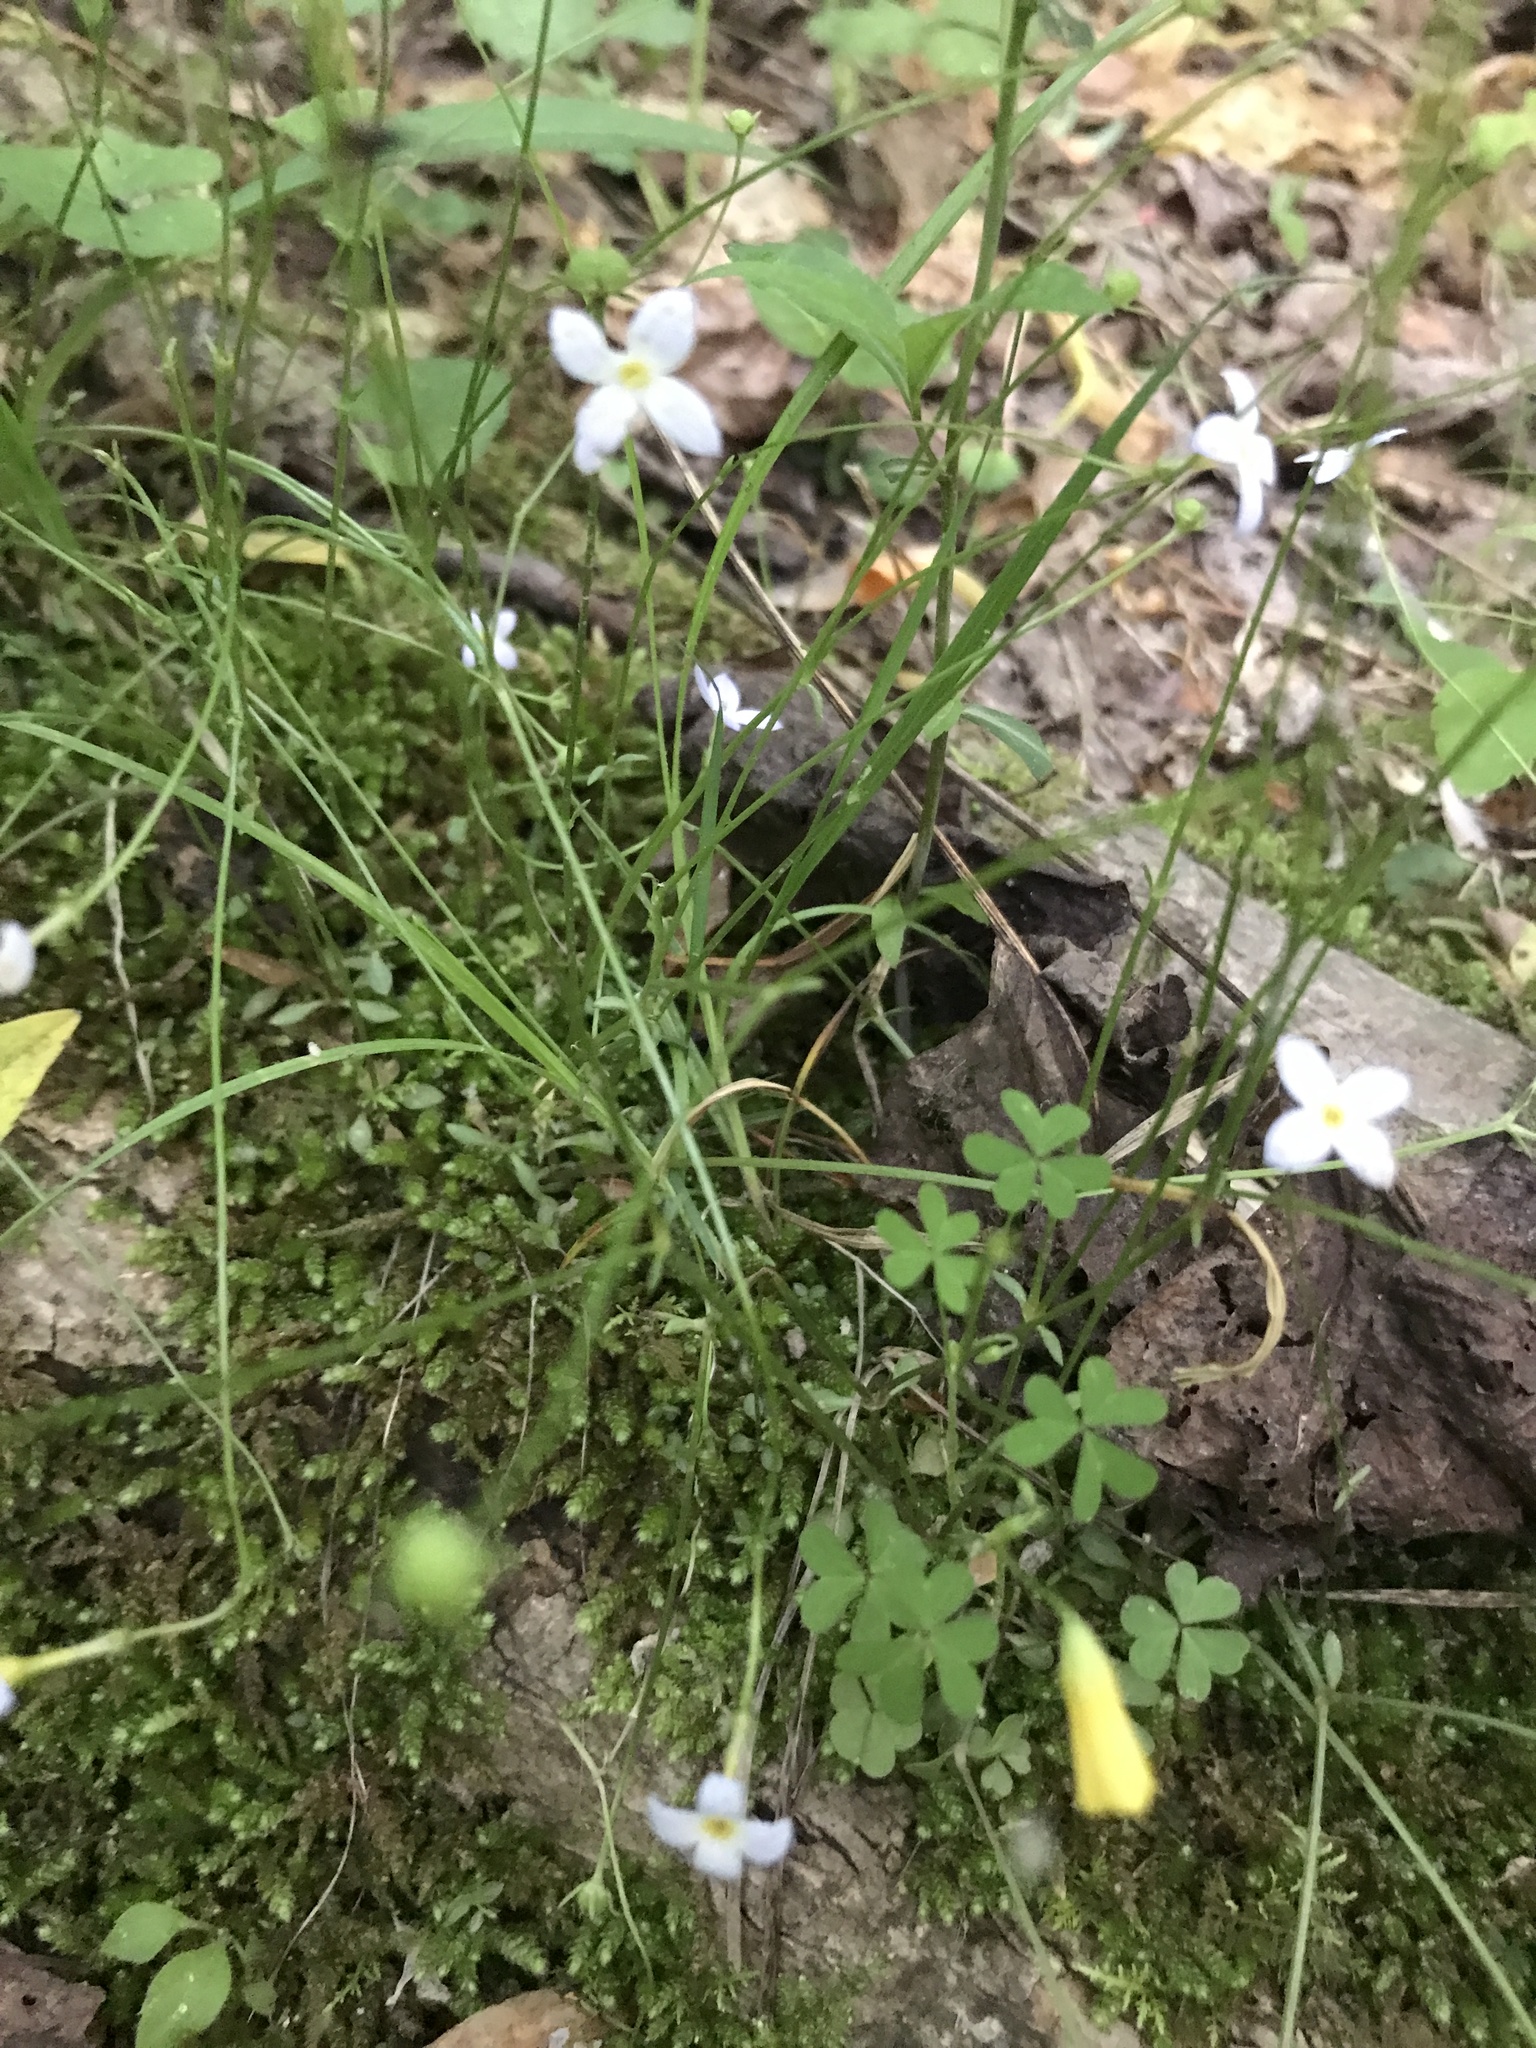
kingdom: Plantae
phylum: Tracheophyta
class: Magnoliopsida
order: Gentianales
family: Rubiaceae
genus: Houstonia
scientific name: Houstonia caerulea
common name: Bluets
